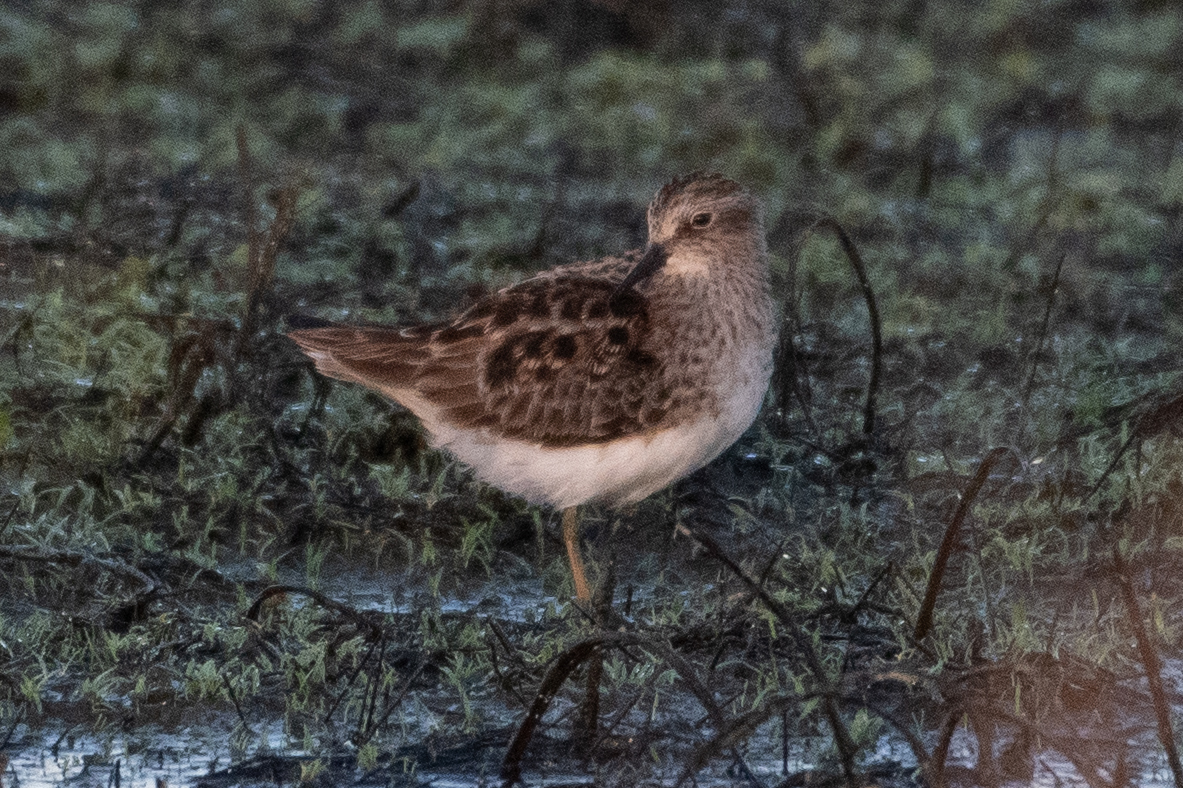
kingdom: Animalia
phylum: Chordata
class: Aves
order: Charadriiformes
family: Scolopacidae
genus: Calidris
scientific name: Calidris minutilla
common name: Least sandpiper
